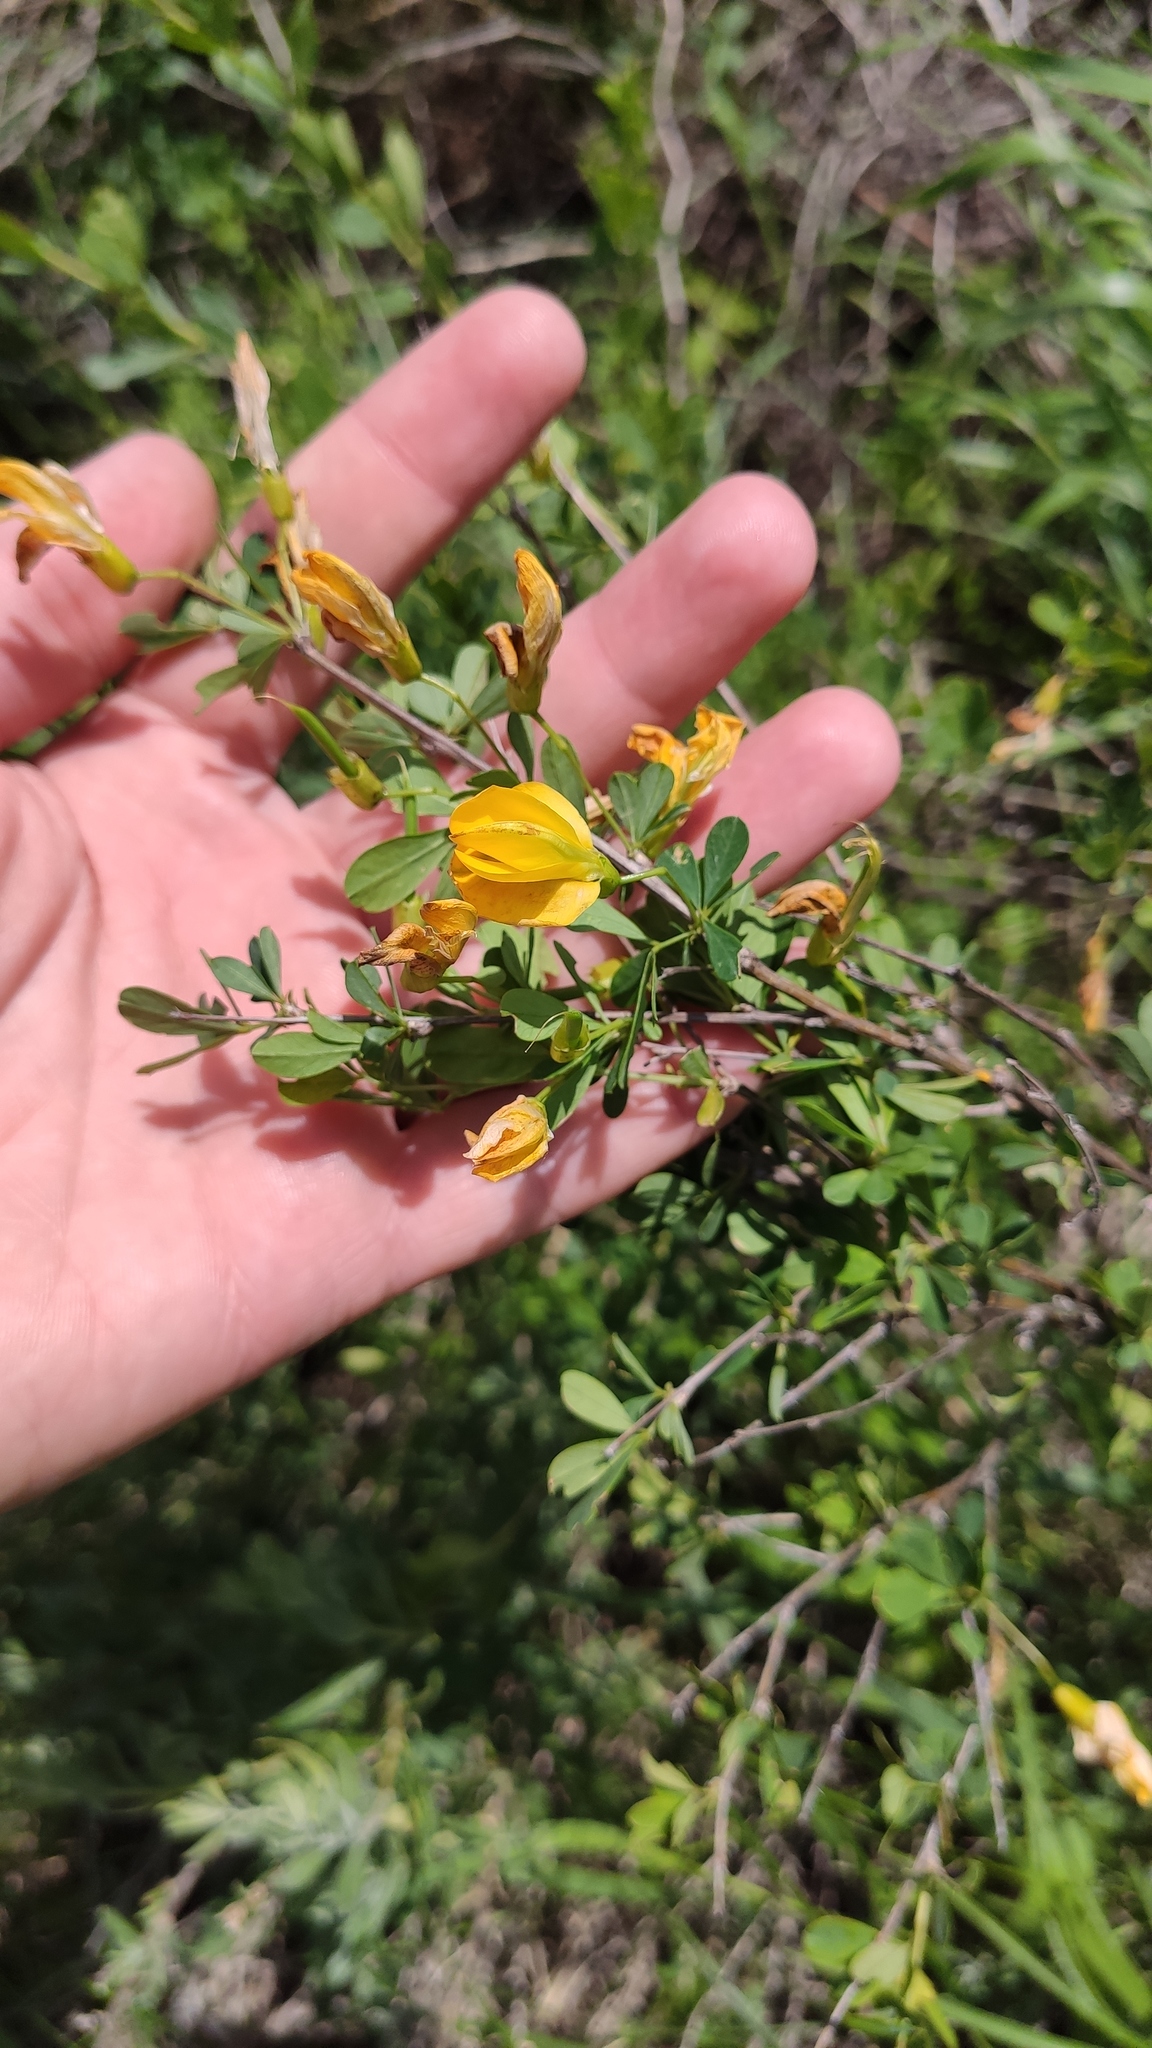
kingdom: Plantae
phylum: Tracheophyta
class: Magnoliopsida
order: Fabales
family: Fabaceae
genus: Caragana
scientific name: Caragana frutex
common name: Russian peashrub
